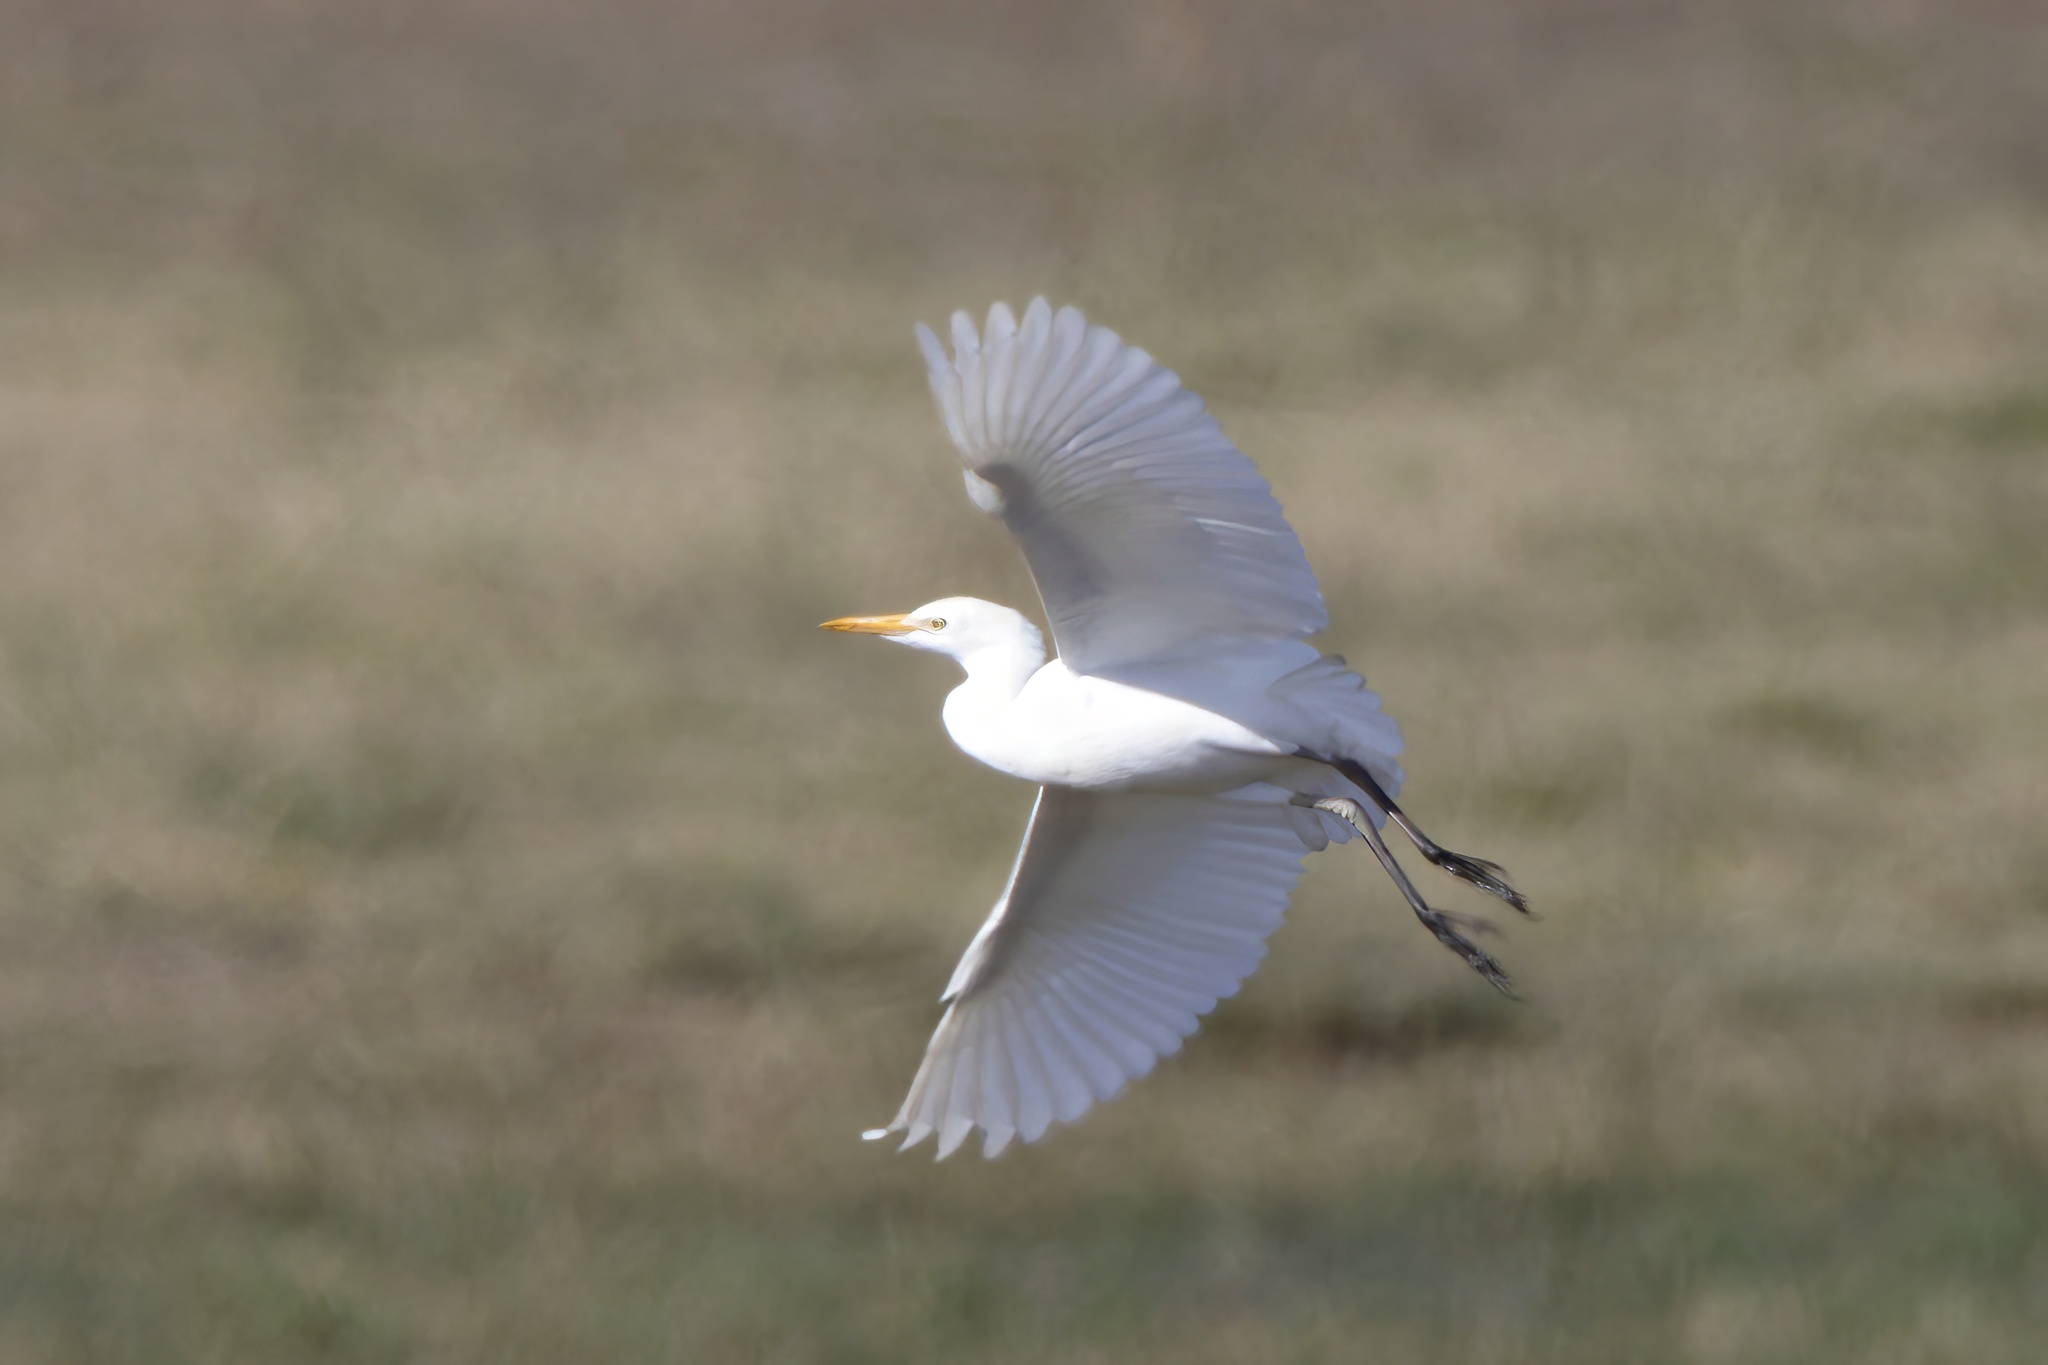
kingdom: Animalia
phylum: Chordata
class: Aves
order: Pelecaniformes
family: Ardeidae
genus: Bubulcus
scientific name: Bubulcus ibis
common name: Cattle egret
